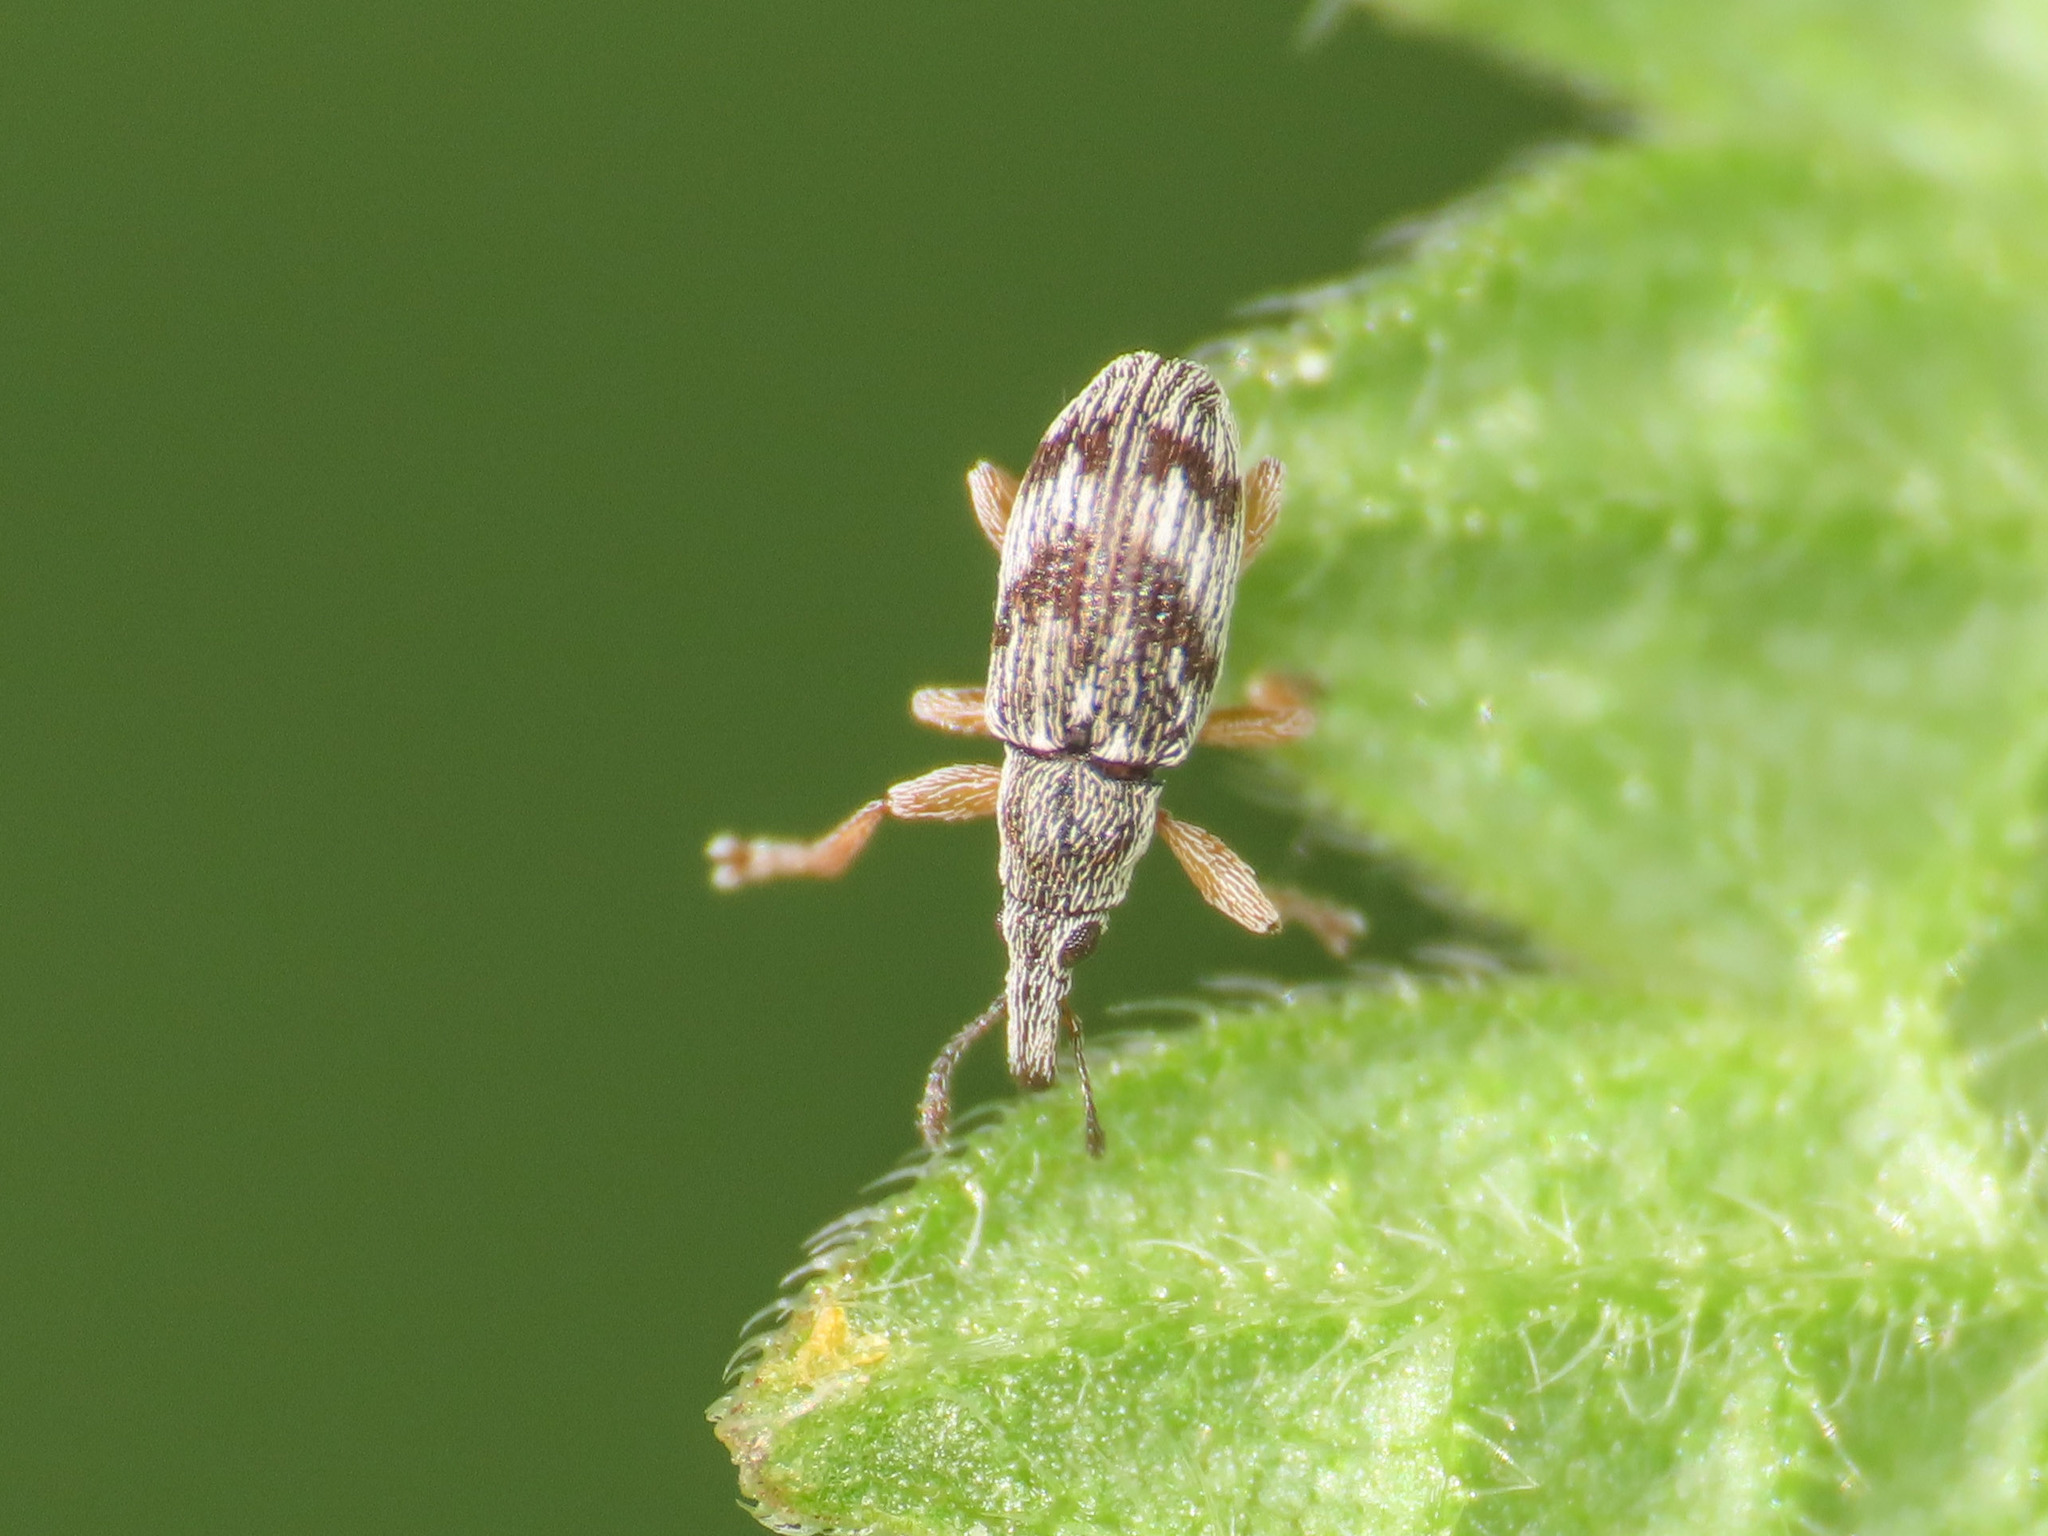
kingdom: Animalia
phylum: Arthropoda
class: Insecta
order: Coleoptera
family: Apionidae
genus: Taeniapion
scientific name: Taeniapion urticarium
